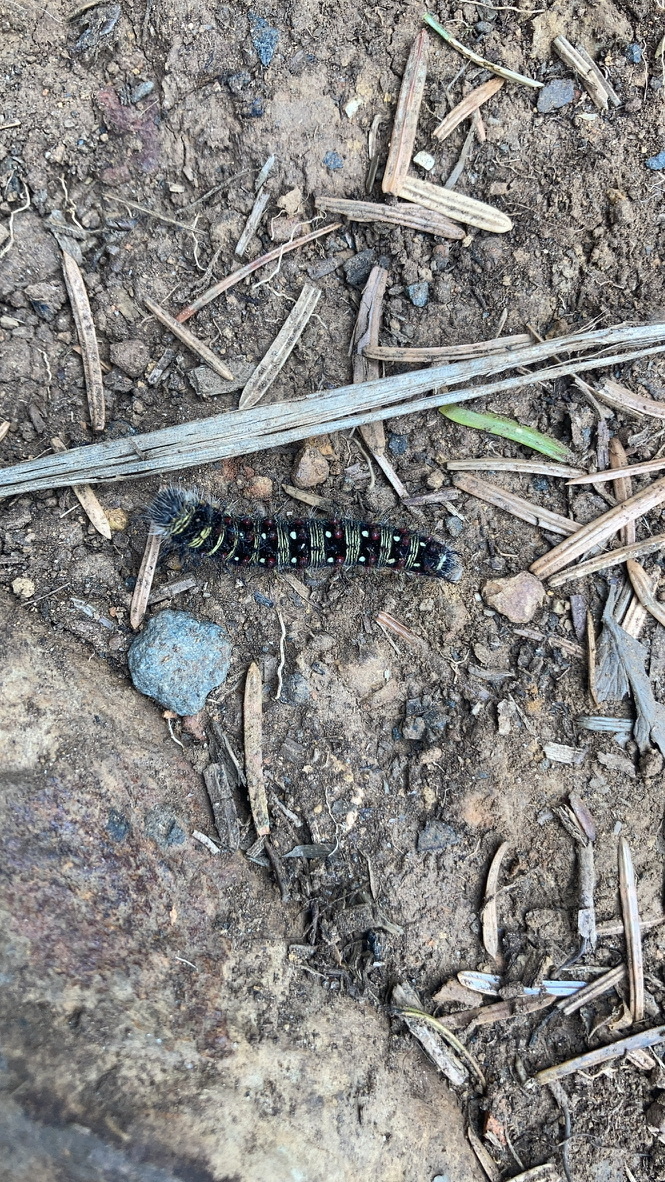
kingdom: Animalia
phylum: Arthropoda
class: Insecta
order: Lepidoptera
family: Nymphalidae
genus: Vanessa
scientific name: Vanessa virginiensis
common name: American lady
